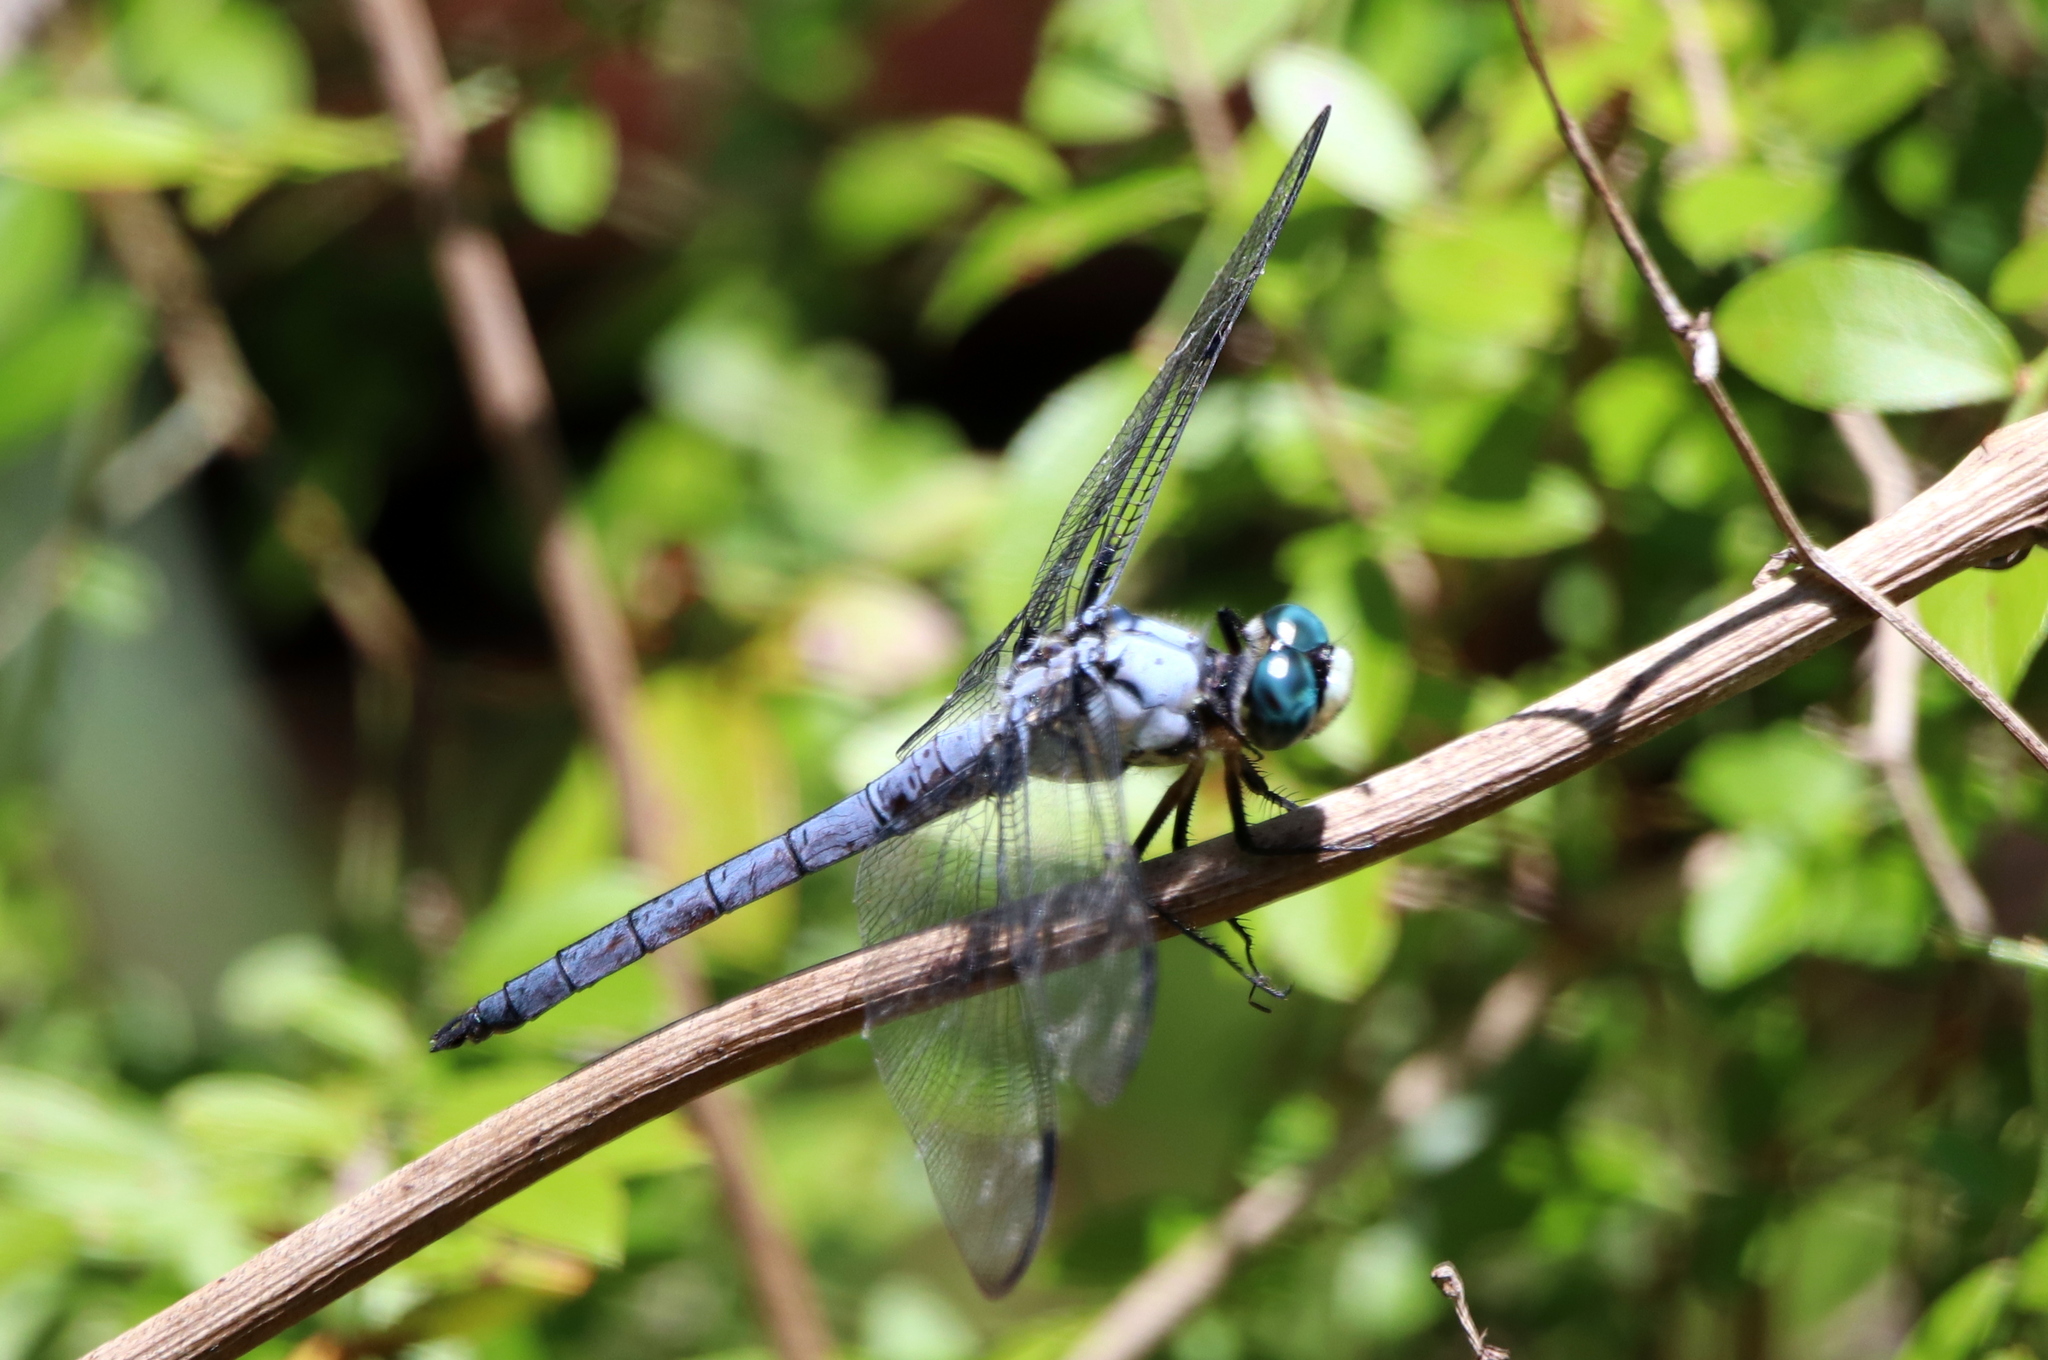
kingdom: Animalia
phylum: Arthropoda
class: Insecta
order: Odonata
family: Libellulidae
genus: Libellula
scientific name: Libellula vibrans
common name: Great blue skimmer
